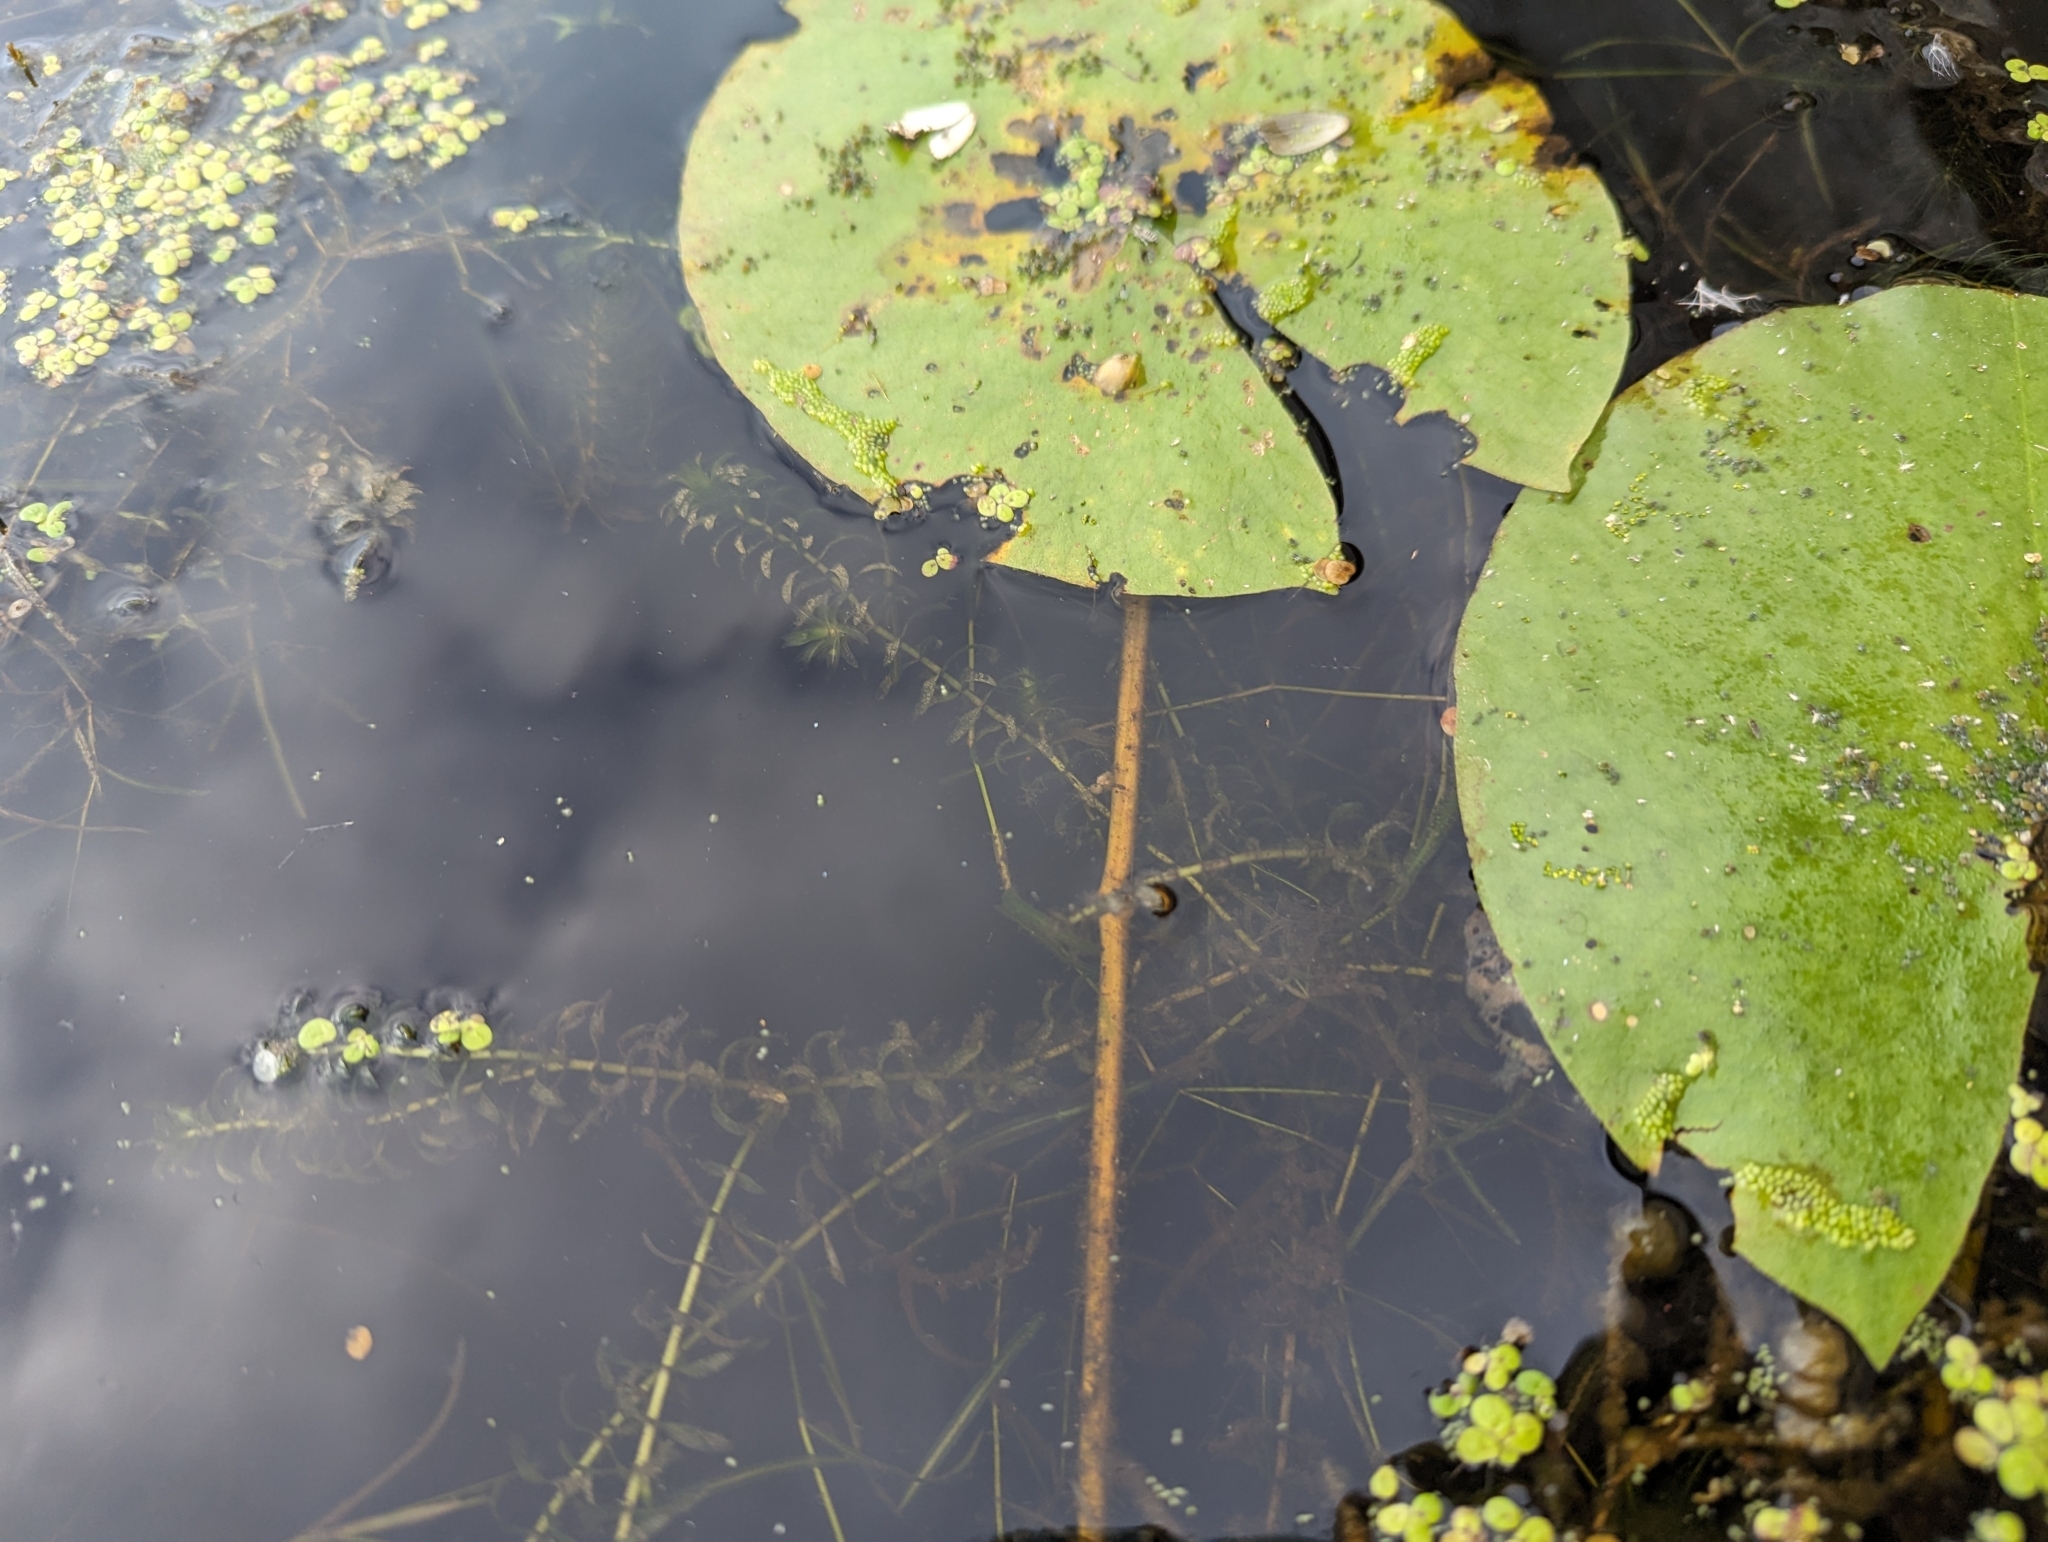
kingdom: Plantae
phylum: Tracheophyta
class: Liliopsida
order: Alismatales
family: Hydrocharitaceae
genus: Elodea
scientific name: Elodea canadensis
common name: Canadian waterweed
